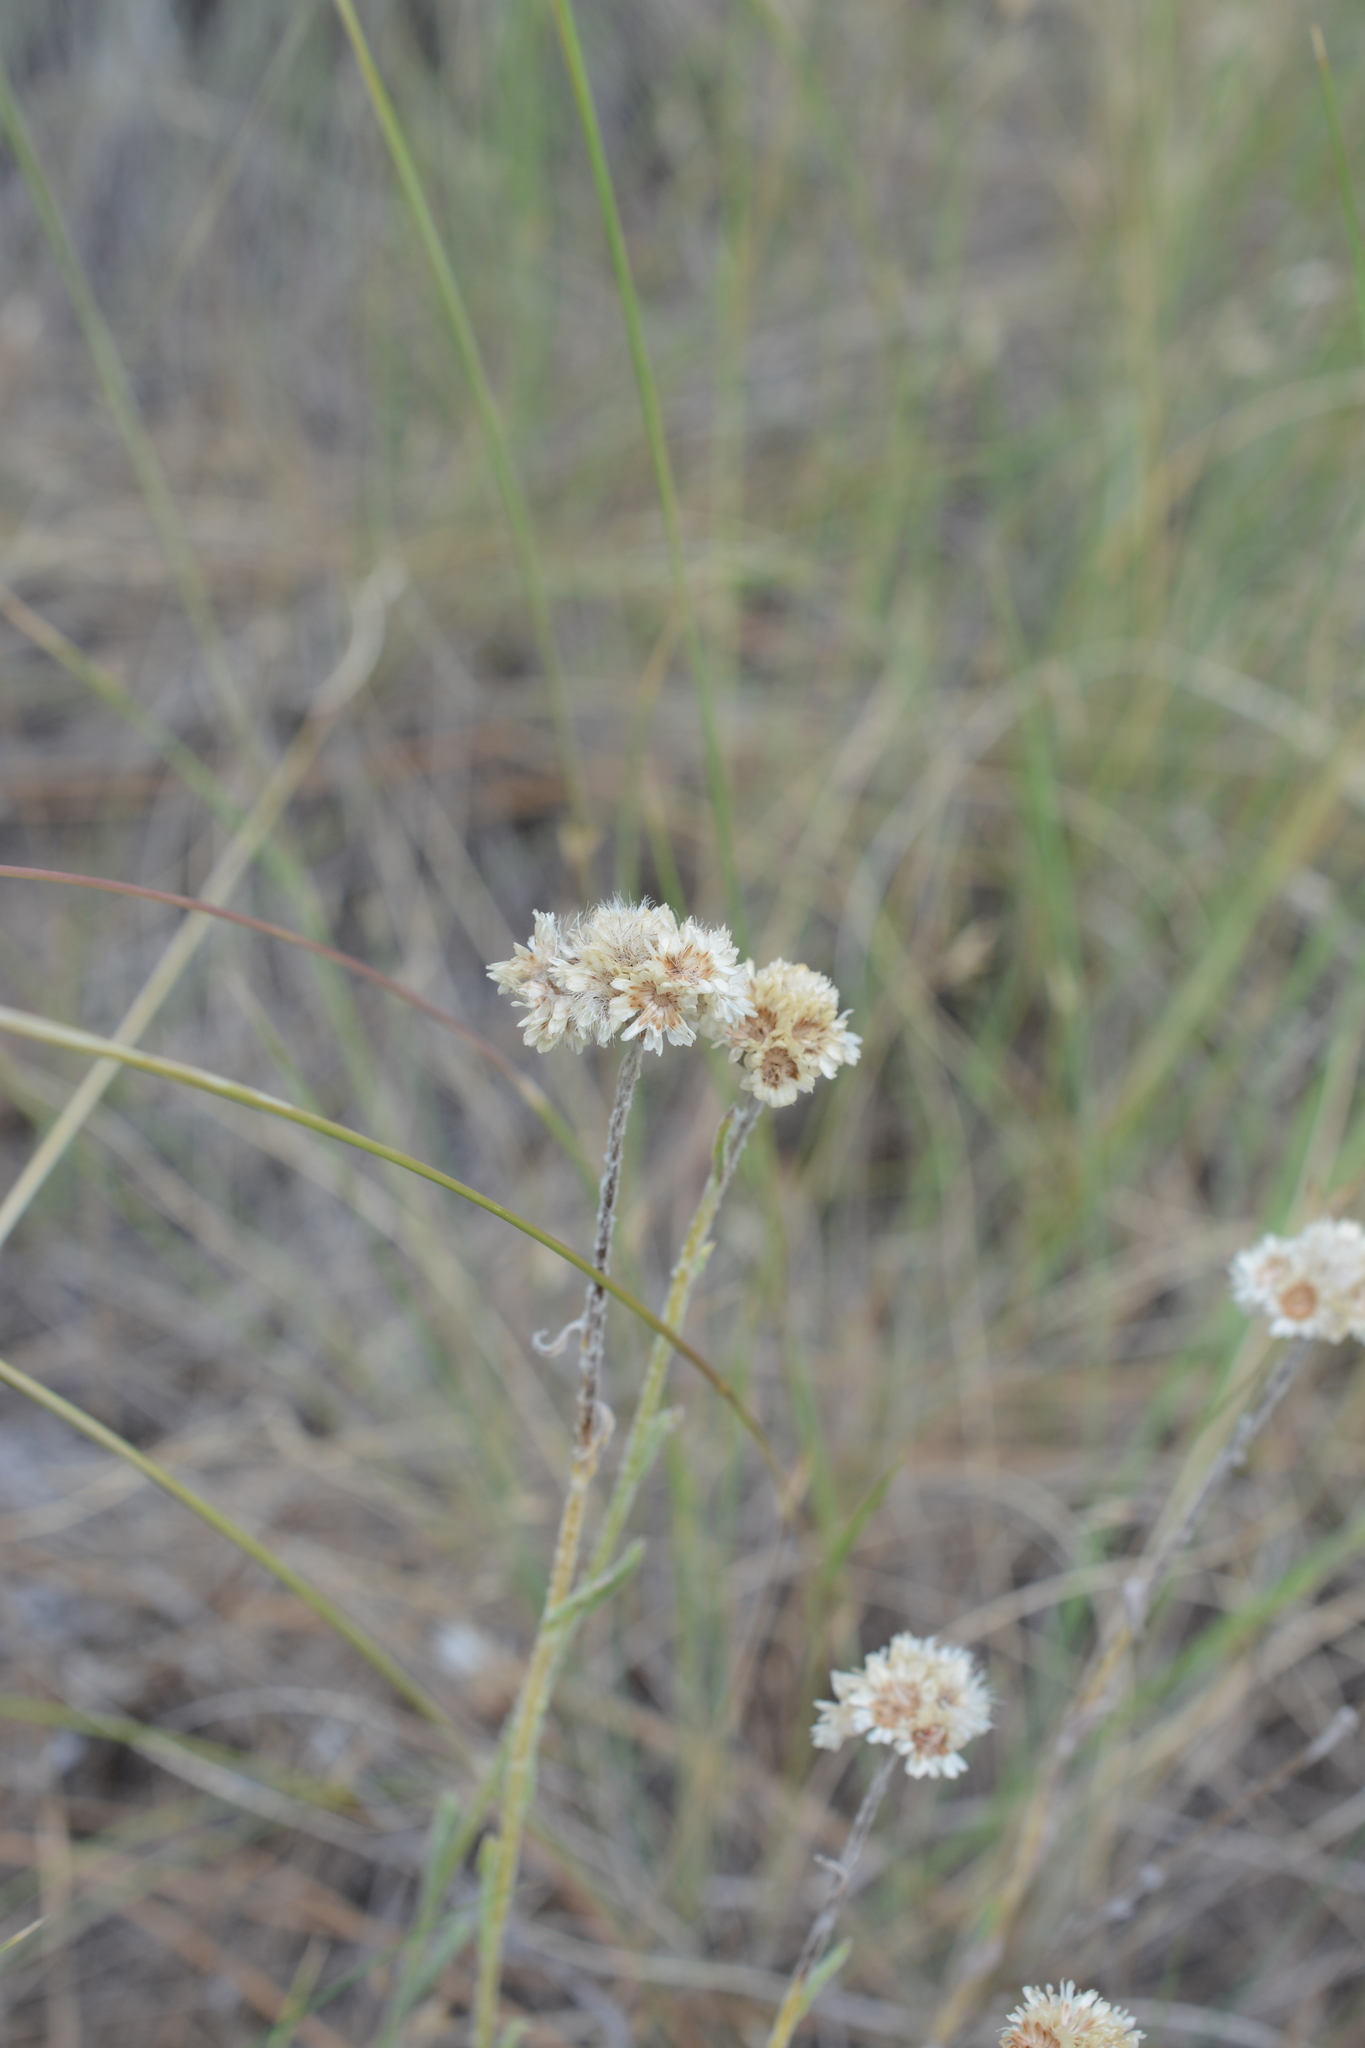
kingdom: Plantae
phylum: Tracheophyta
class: Magnoliopsida
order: Asterales
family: Asteraceae
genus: Antennaria
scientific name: Antennaria umbrinella
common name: Brown pussytoes
